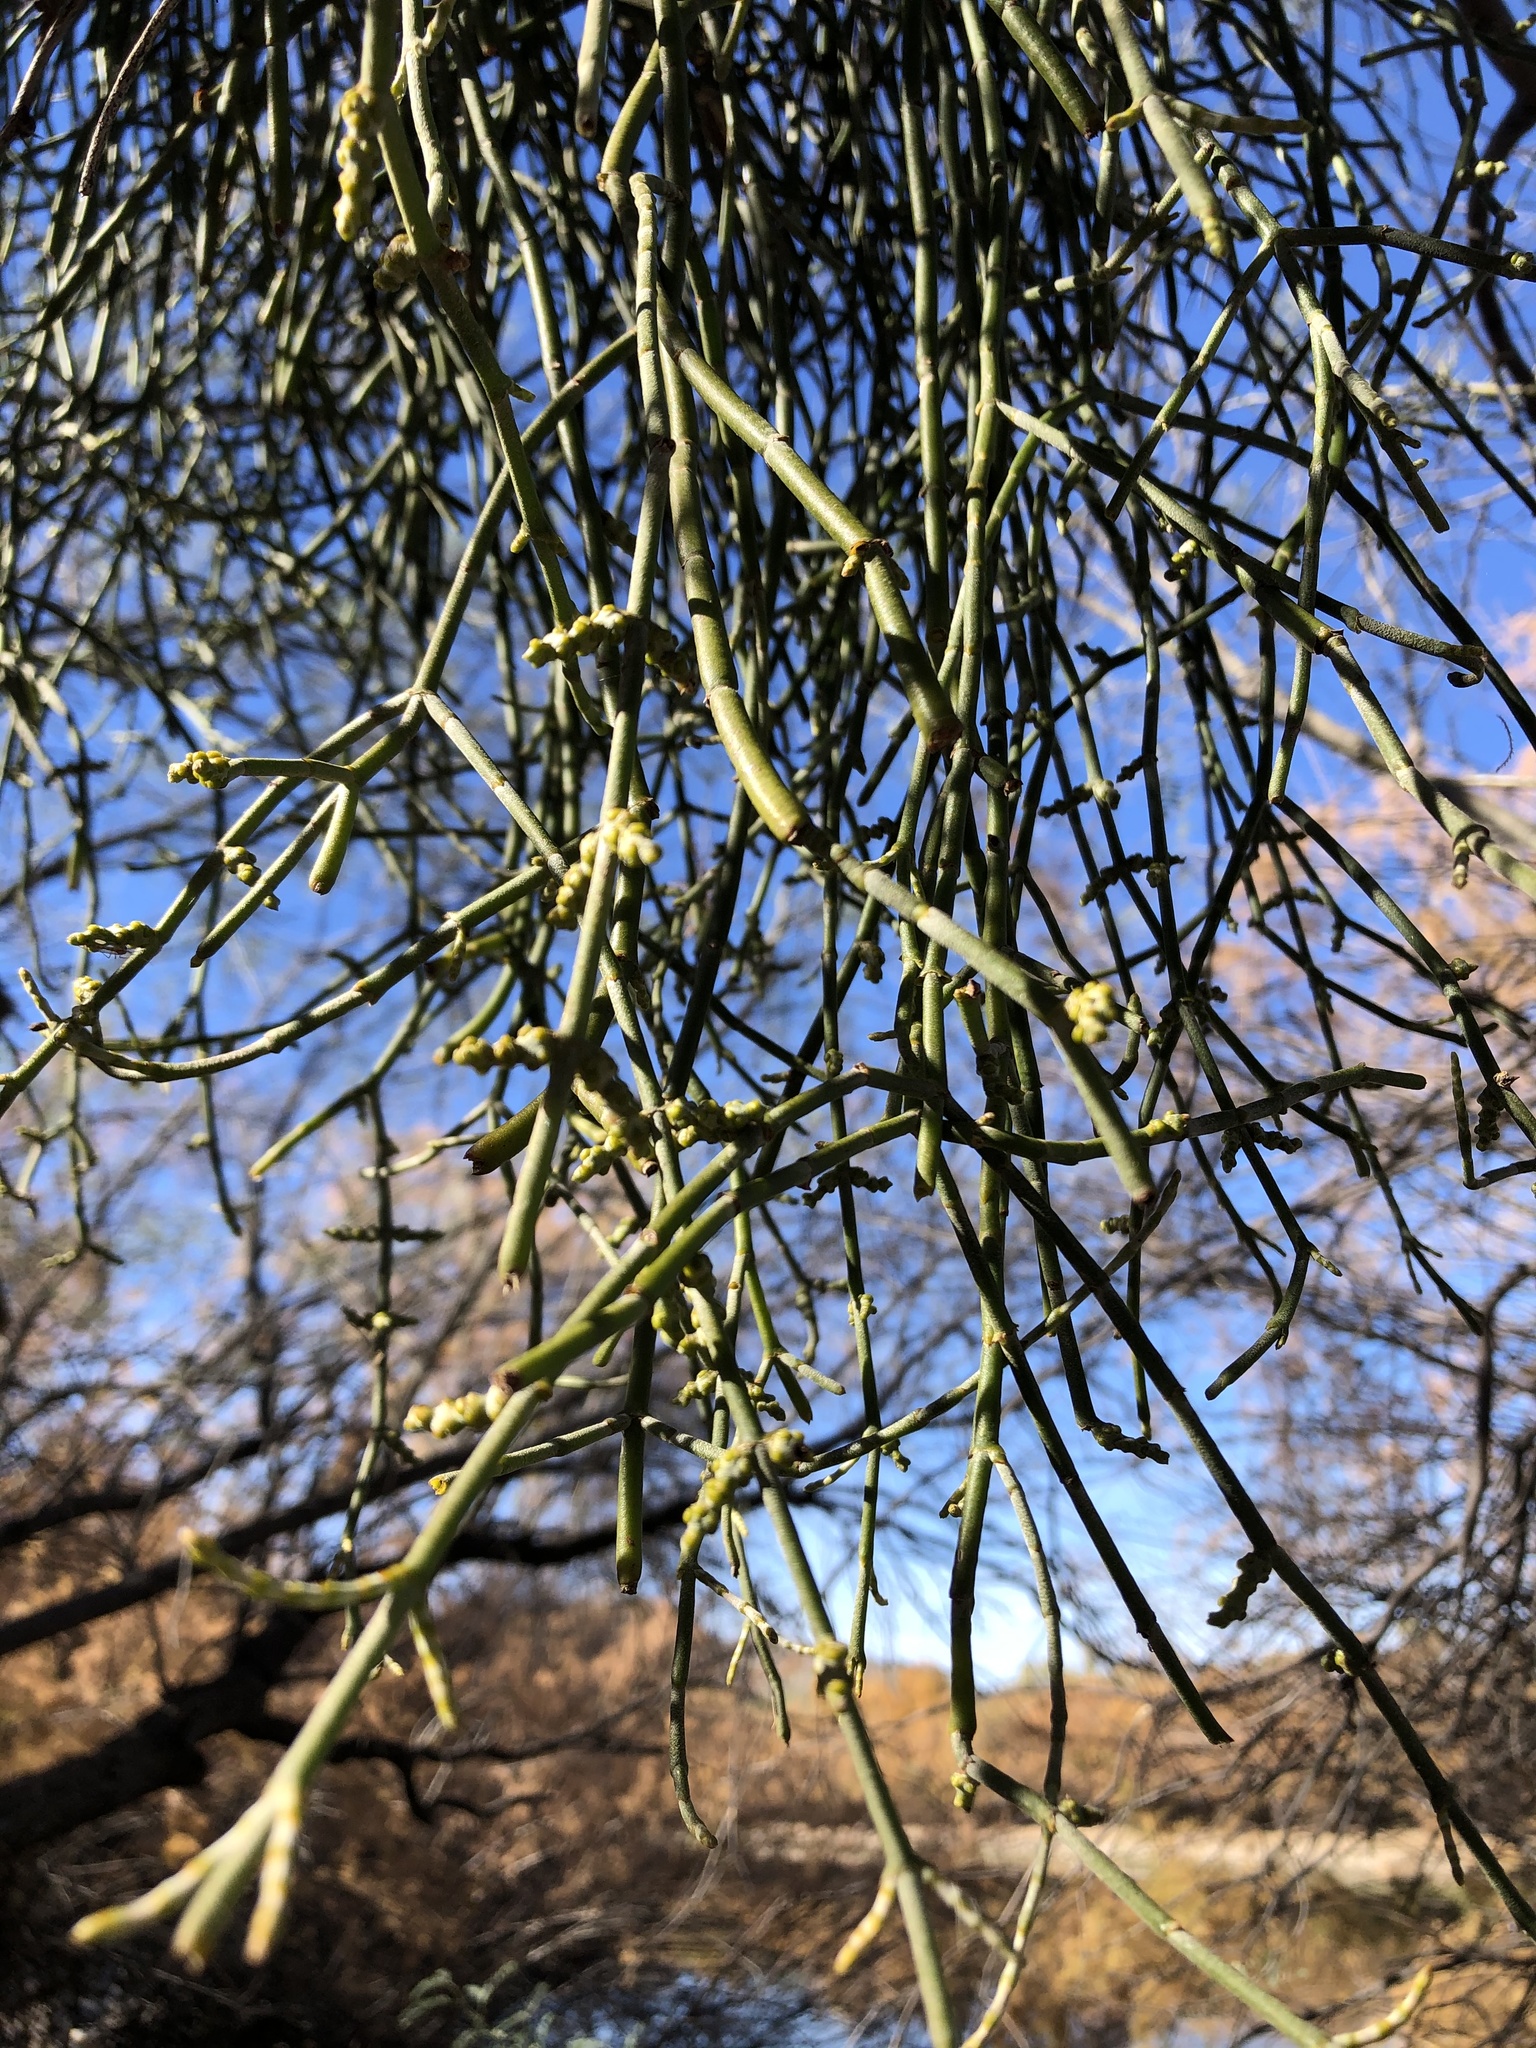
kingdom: Plantae
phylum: Tracheophyta
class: Magnoliopsida
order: Santalales
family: Viscaceae
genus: Phoradendron
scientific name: Phoradendron californicum
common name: Acacia mistletoe
